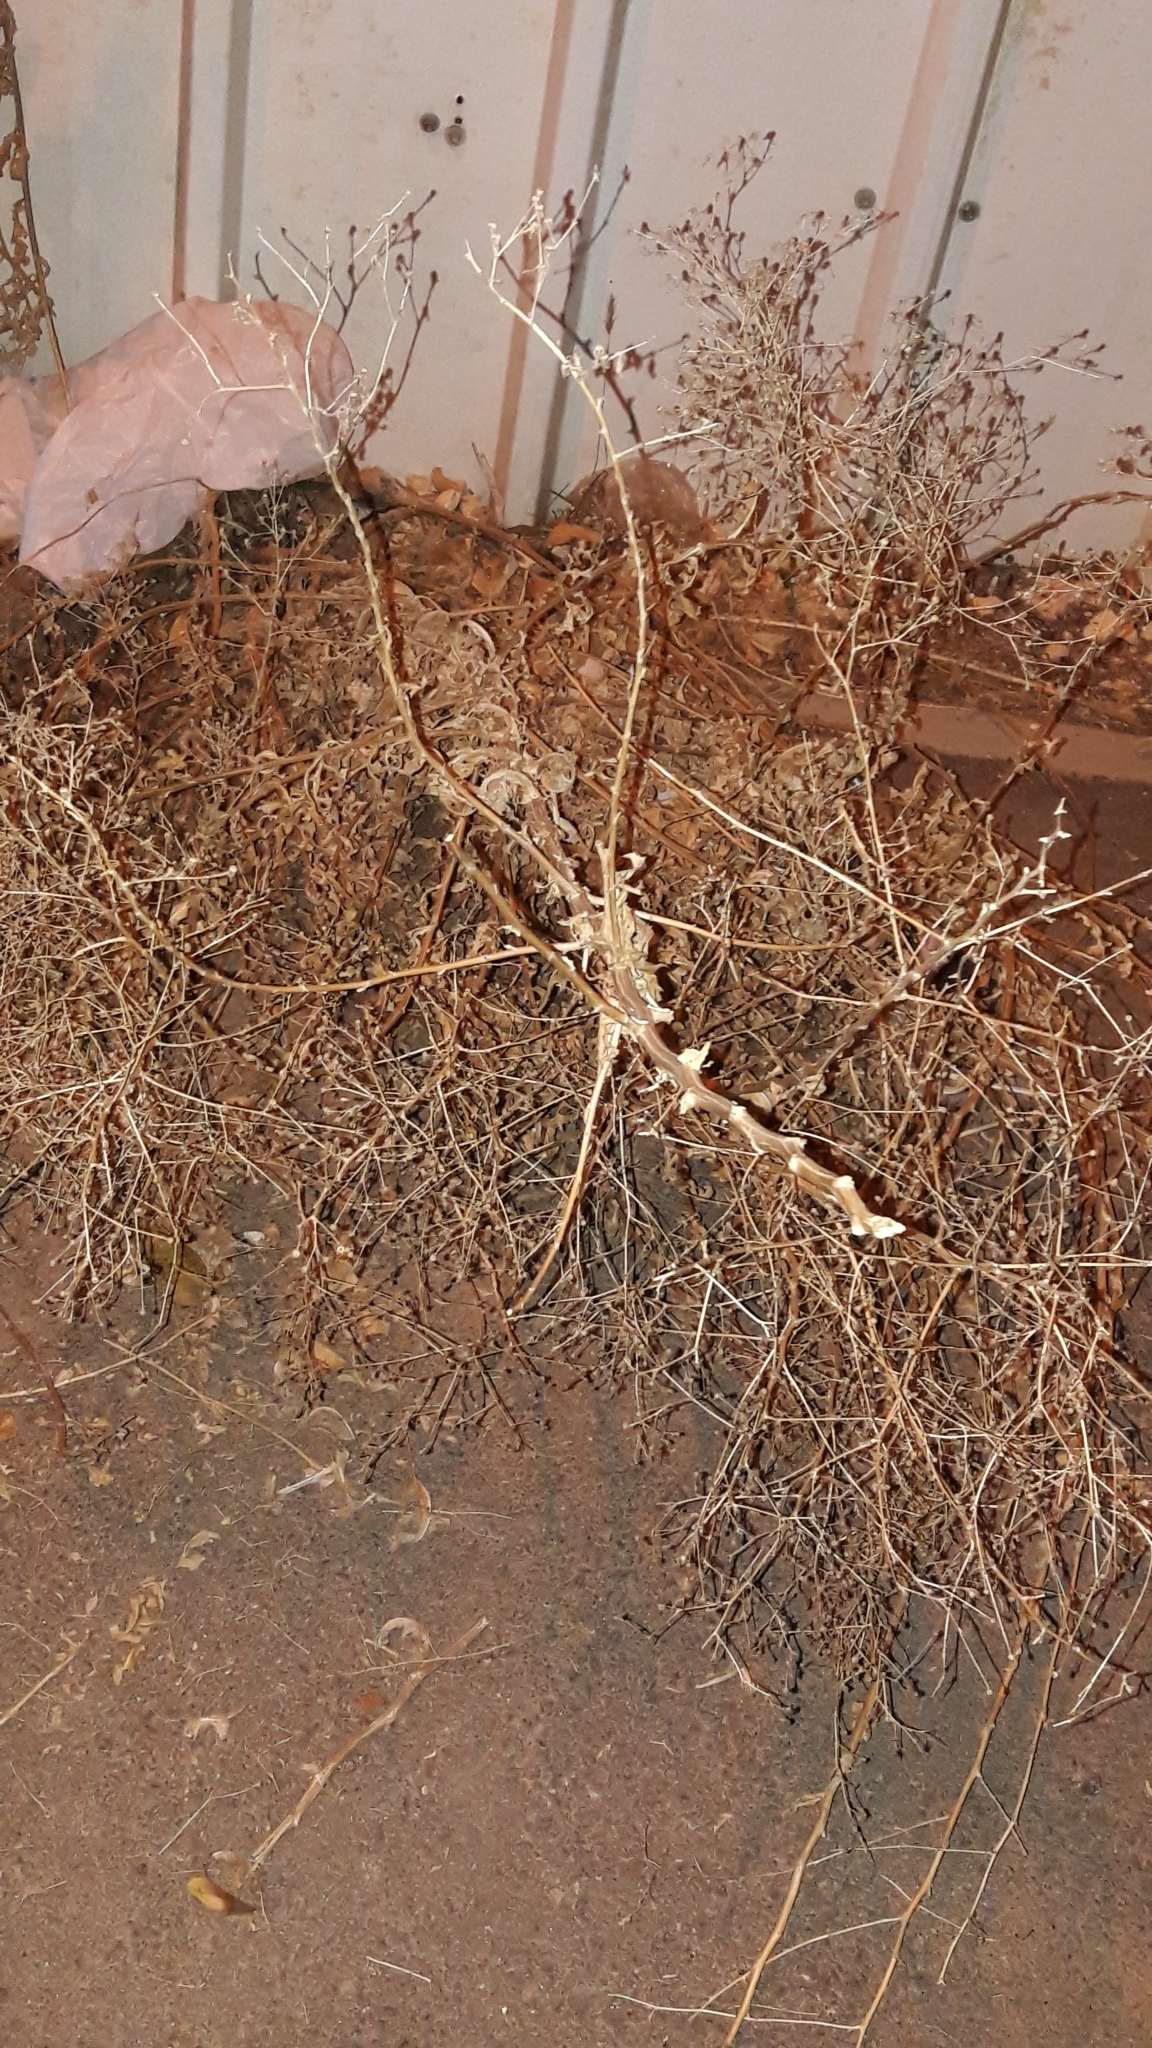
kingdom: Plantae
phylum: Tracheophyta
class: Magnoliopsida
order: Asterales
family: Asteraceae
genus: Lactuca
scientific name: Lactuca serriola
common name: Prickly lettuce
